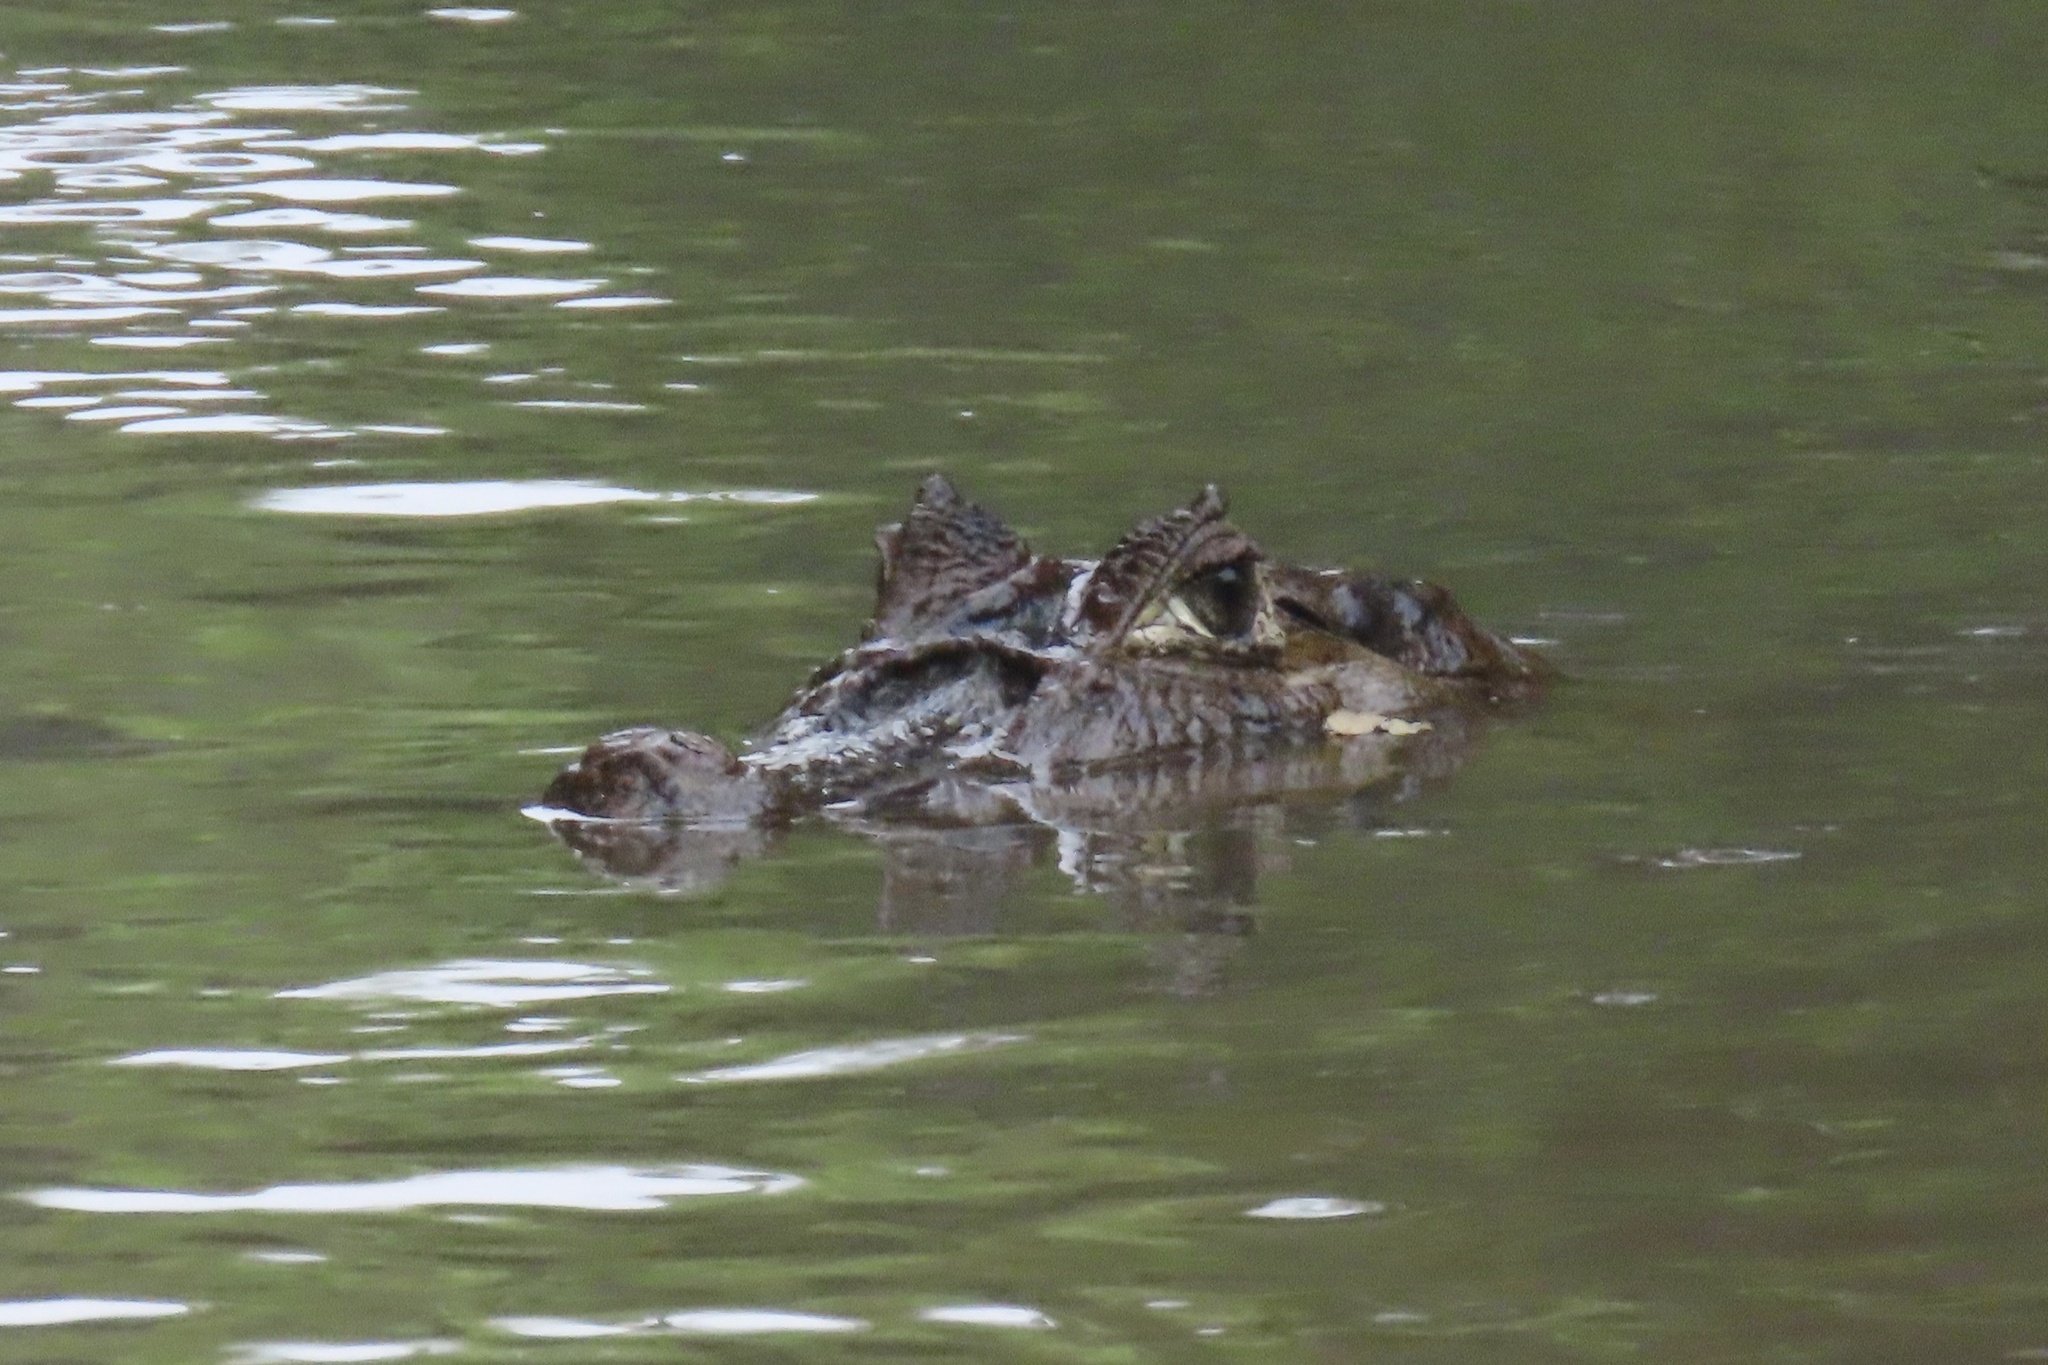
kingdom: Animalia
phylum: Chordata
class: Crocodylia
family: Alligatoridae
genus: Caiman
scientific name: Caiman crocodilus
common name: Common caiman
